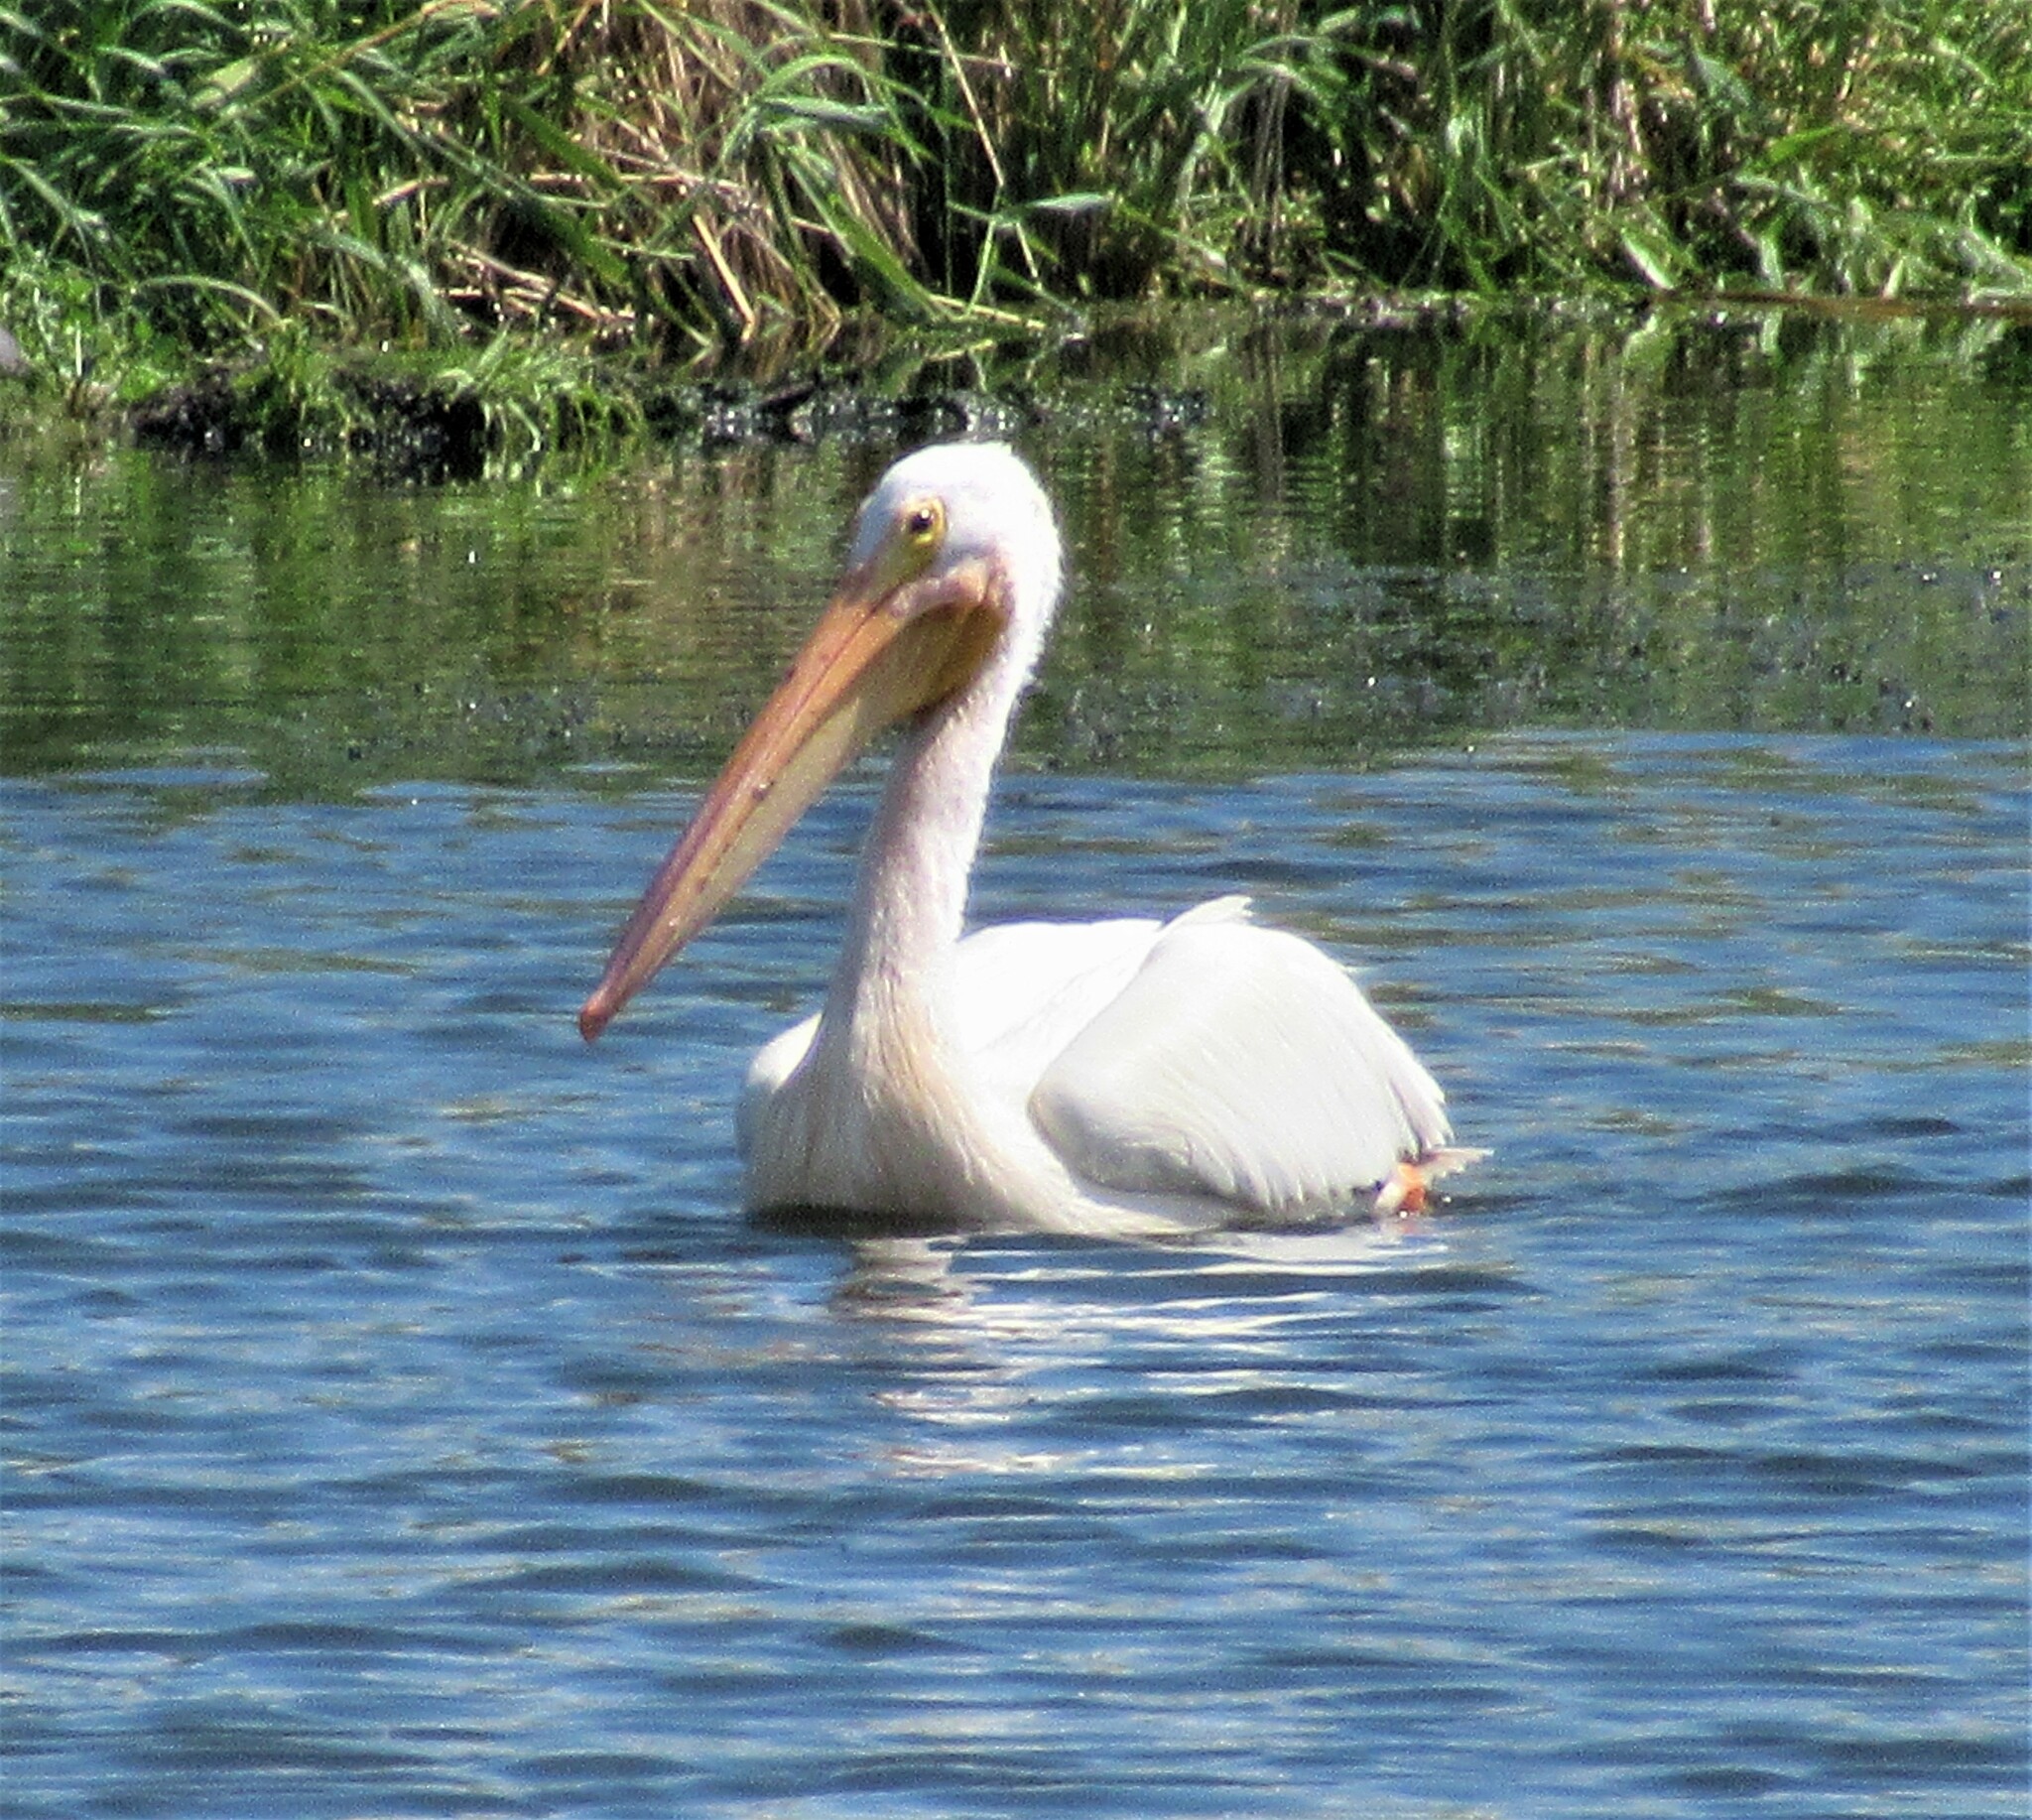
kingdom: Animalia
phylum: Chordata
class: Aves
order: Pelecaniformes
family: Pelecanidae
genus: Pelecanus
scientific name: Pelecanus erythrorhynchos
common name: American white pelican
